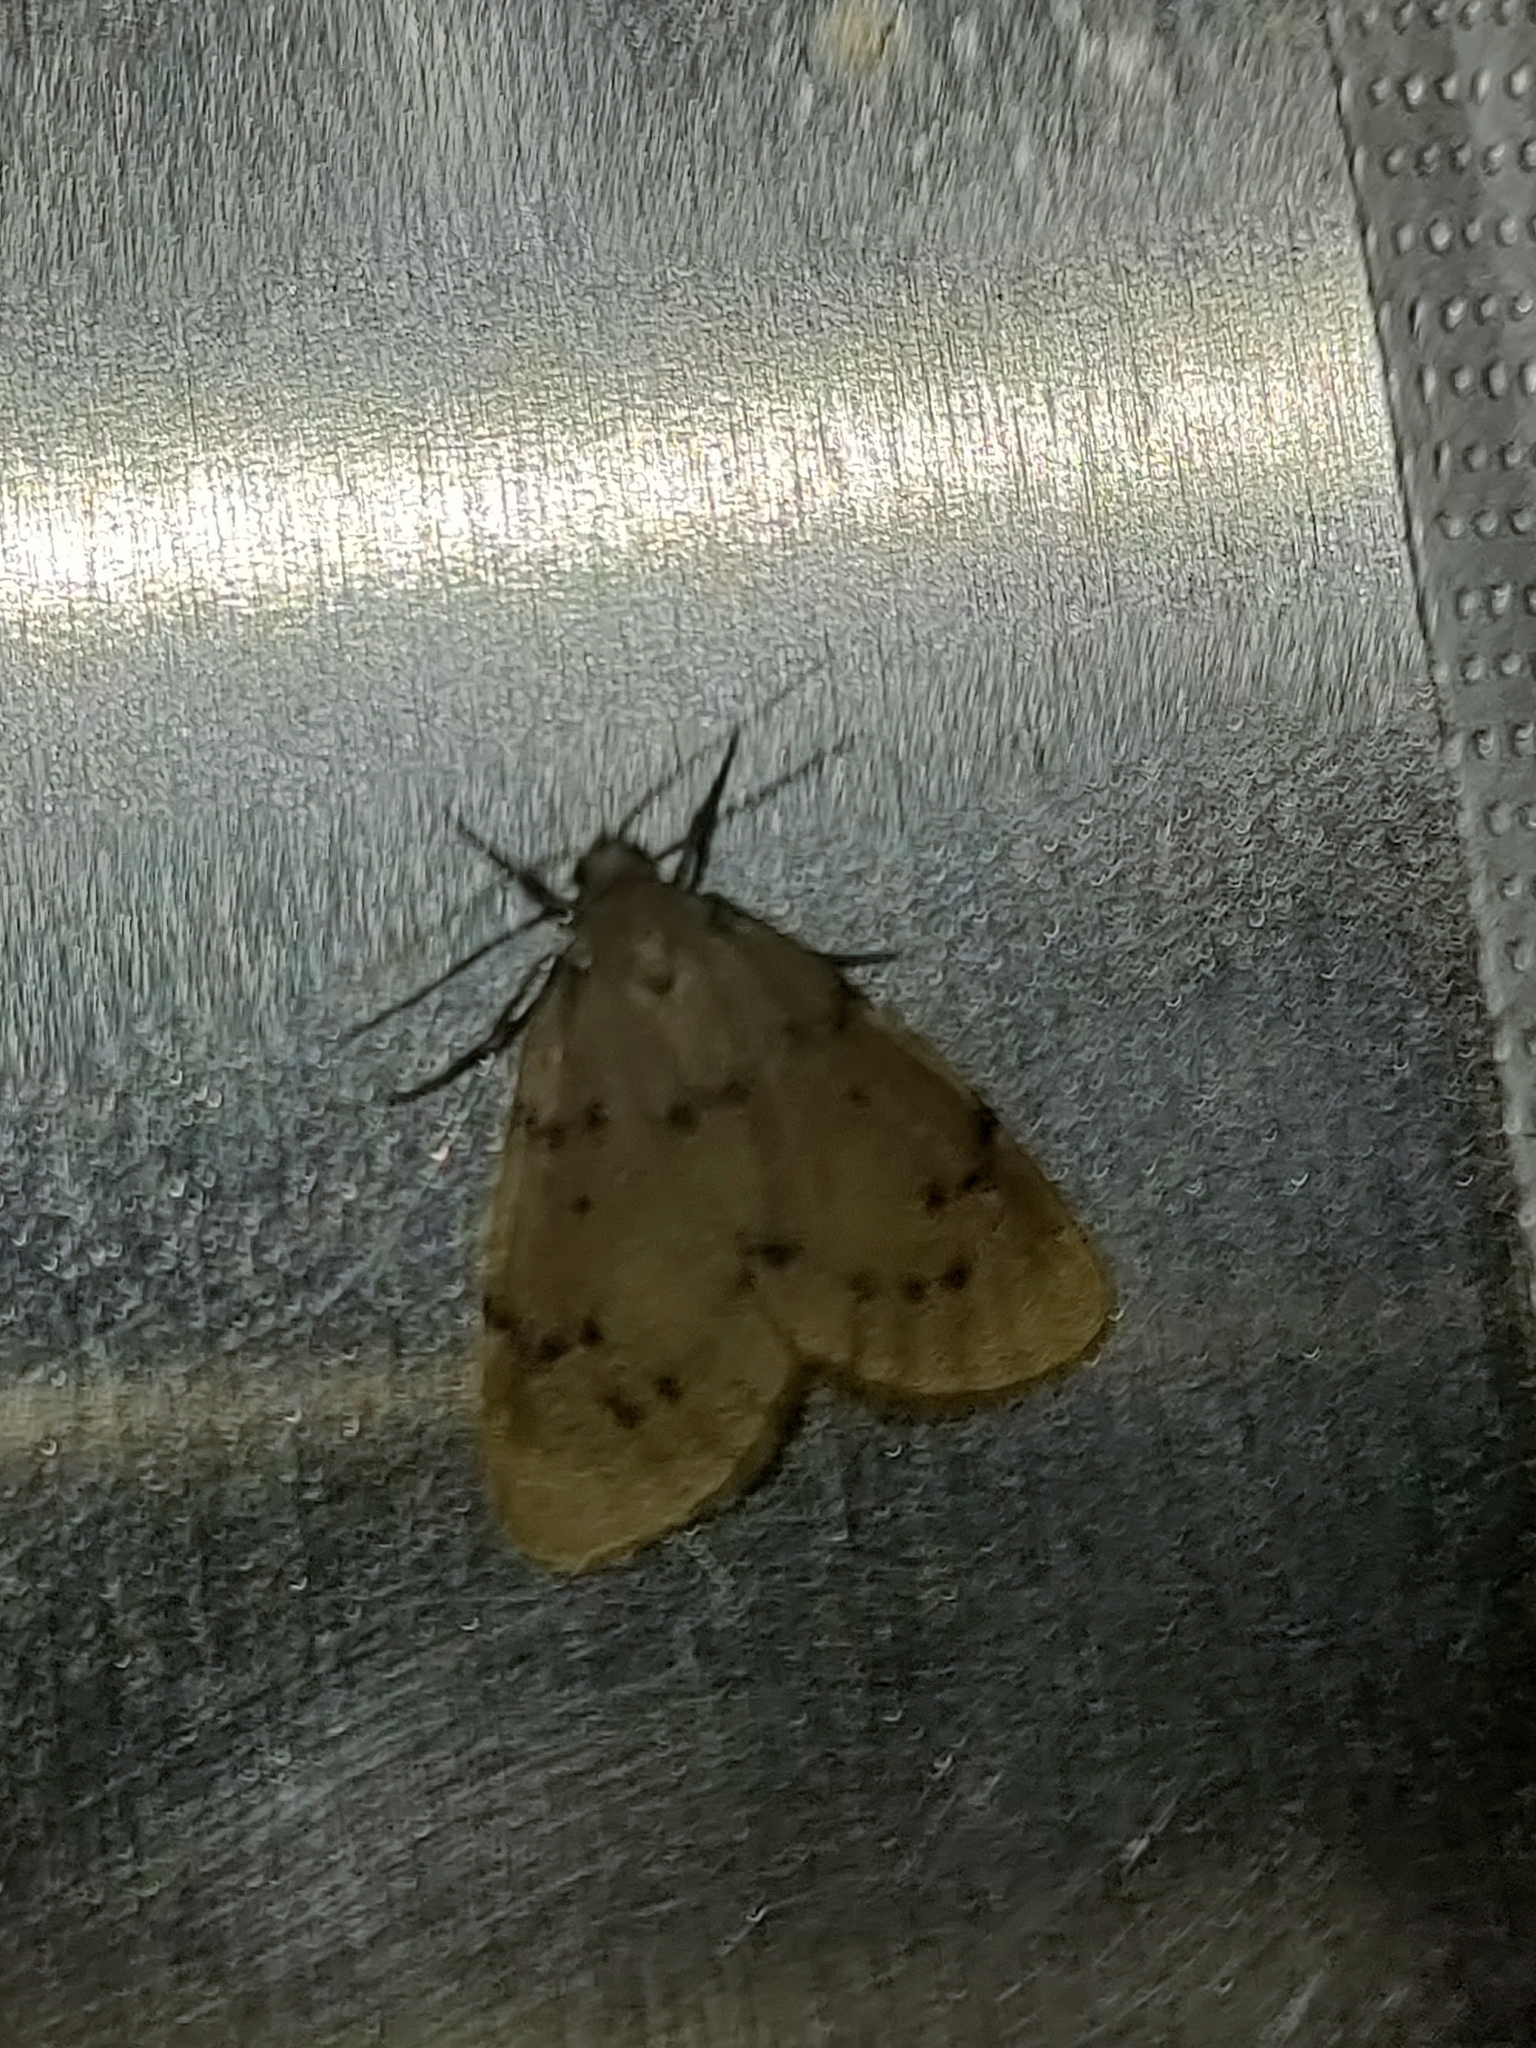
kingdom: Animalia
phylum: Arthropoda
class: Insecta
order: Lepidoptera
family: Erebidae
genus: Paidia
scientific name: Paidia rica
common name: Glaucous muslin
